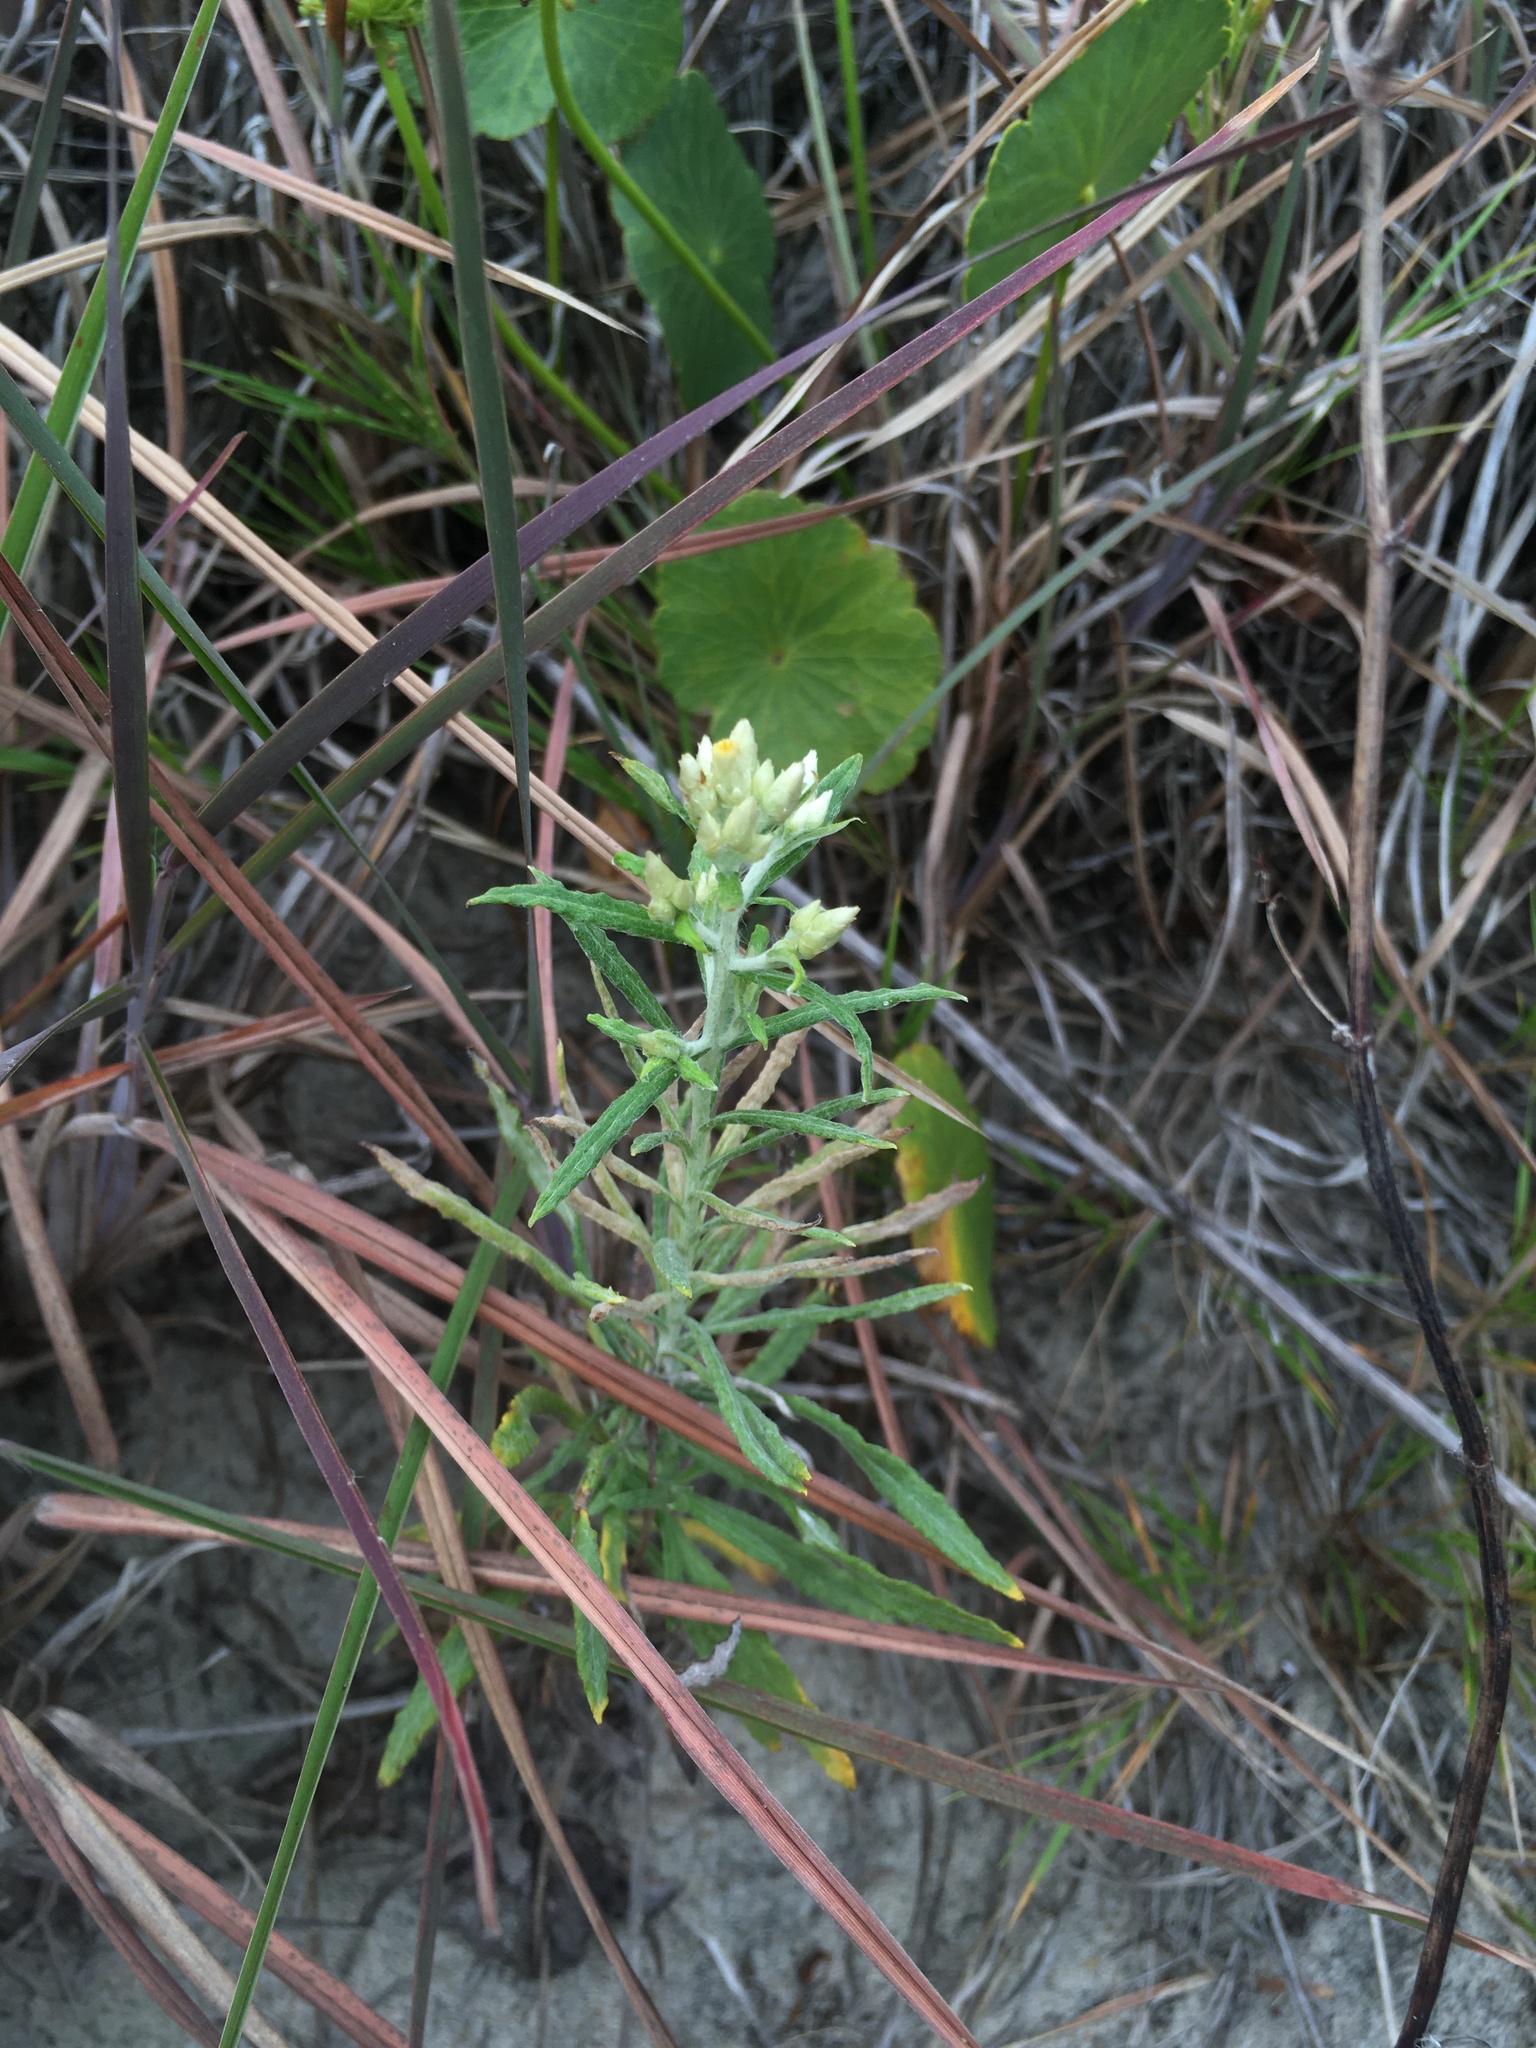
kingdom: Plantae
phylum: Tracheophyta
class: Magnoliopsida
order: Asterales
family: Asteraceae
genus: Pseudognaphalium
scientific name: Pseudognaphalium obtusifolium
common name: Eastern rabbit-tobacco
